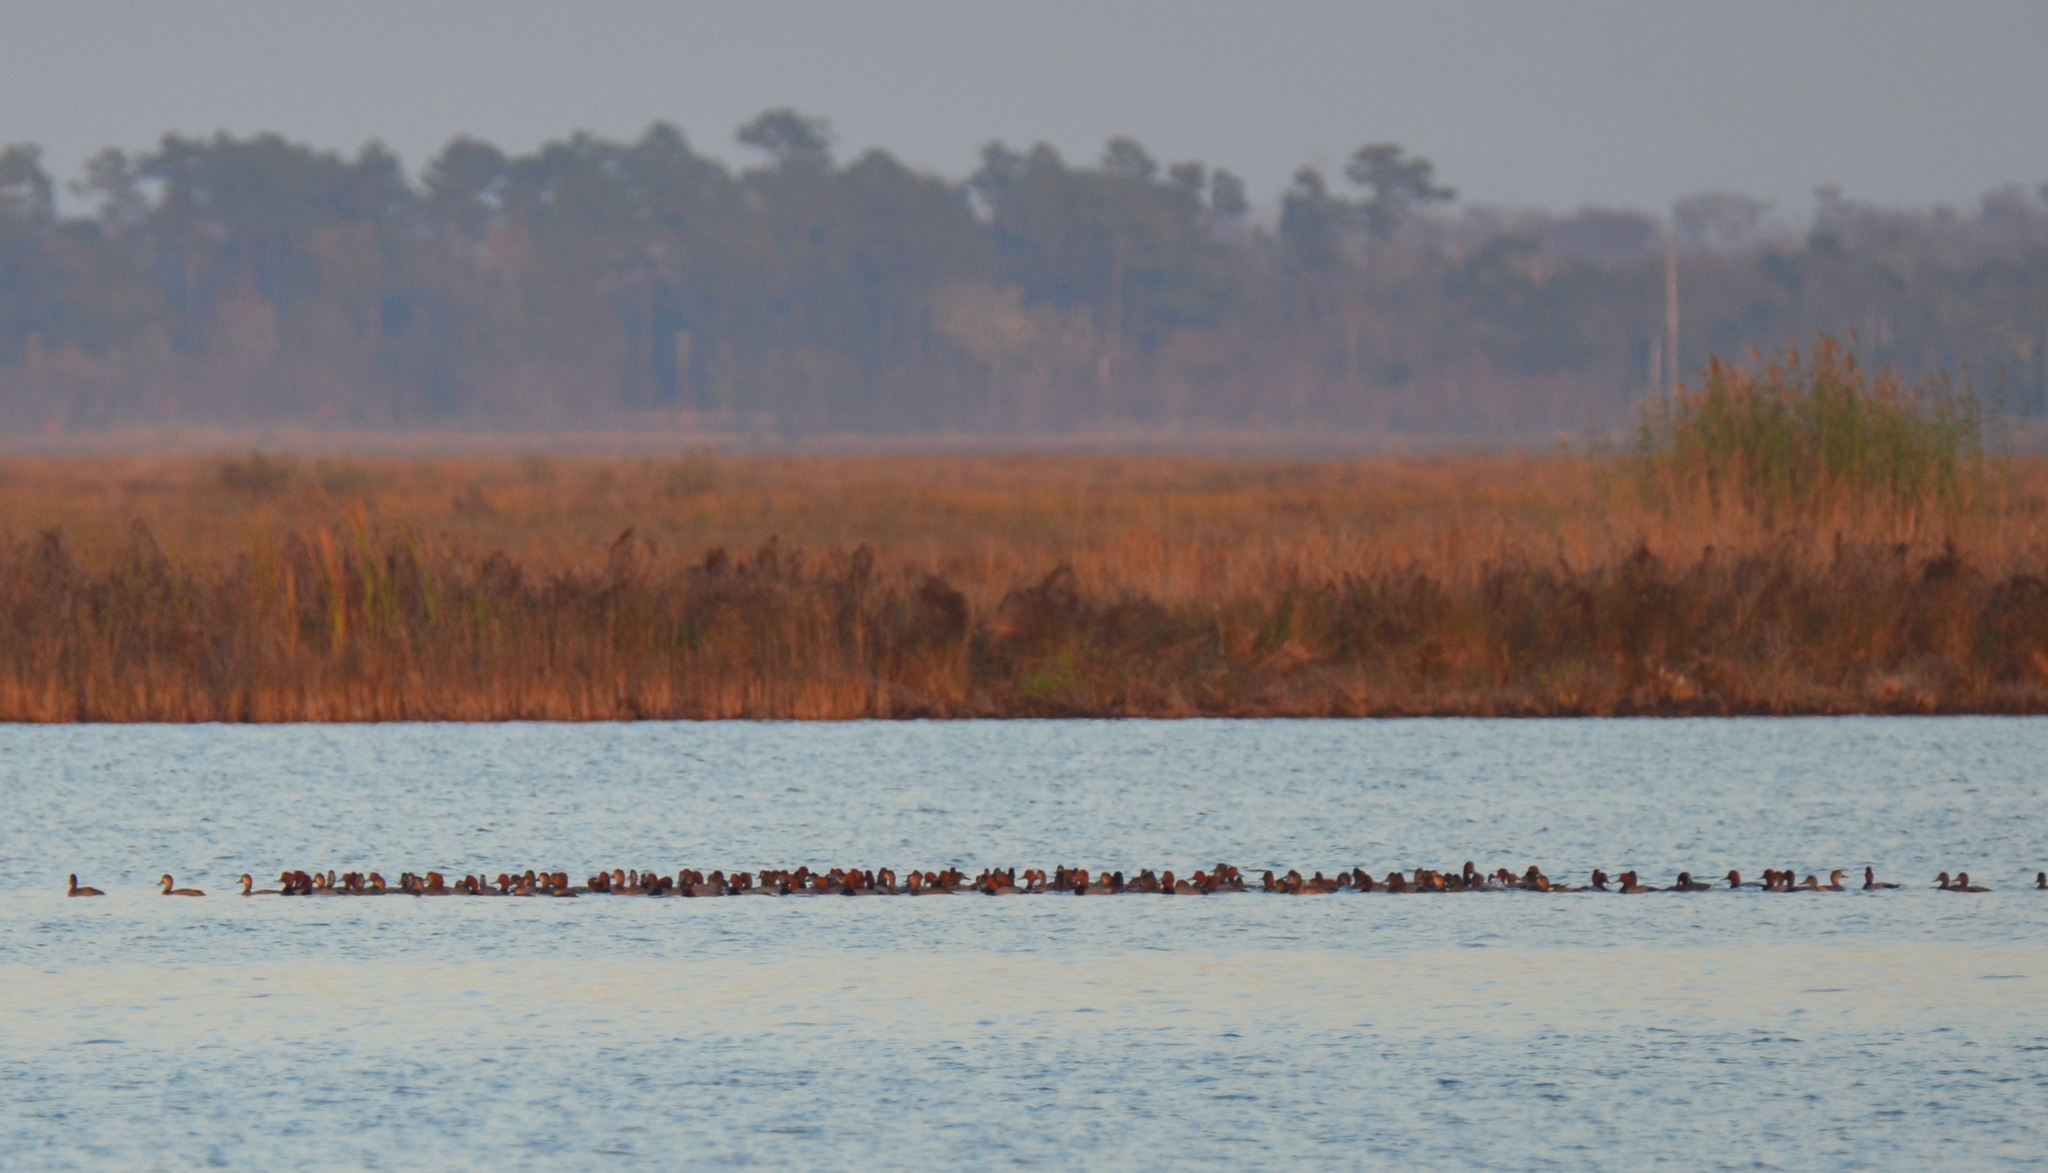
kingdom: Animalia
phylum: Chordata
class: Aves
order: Anseriformes
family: Anatidae
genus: Aythya
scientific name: Aythya americana
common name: Redhead
